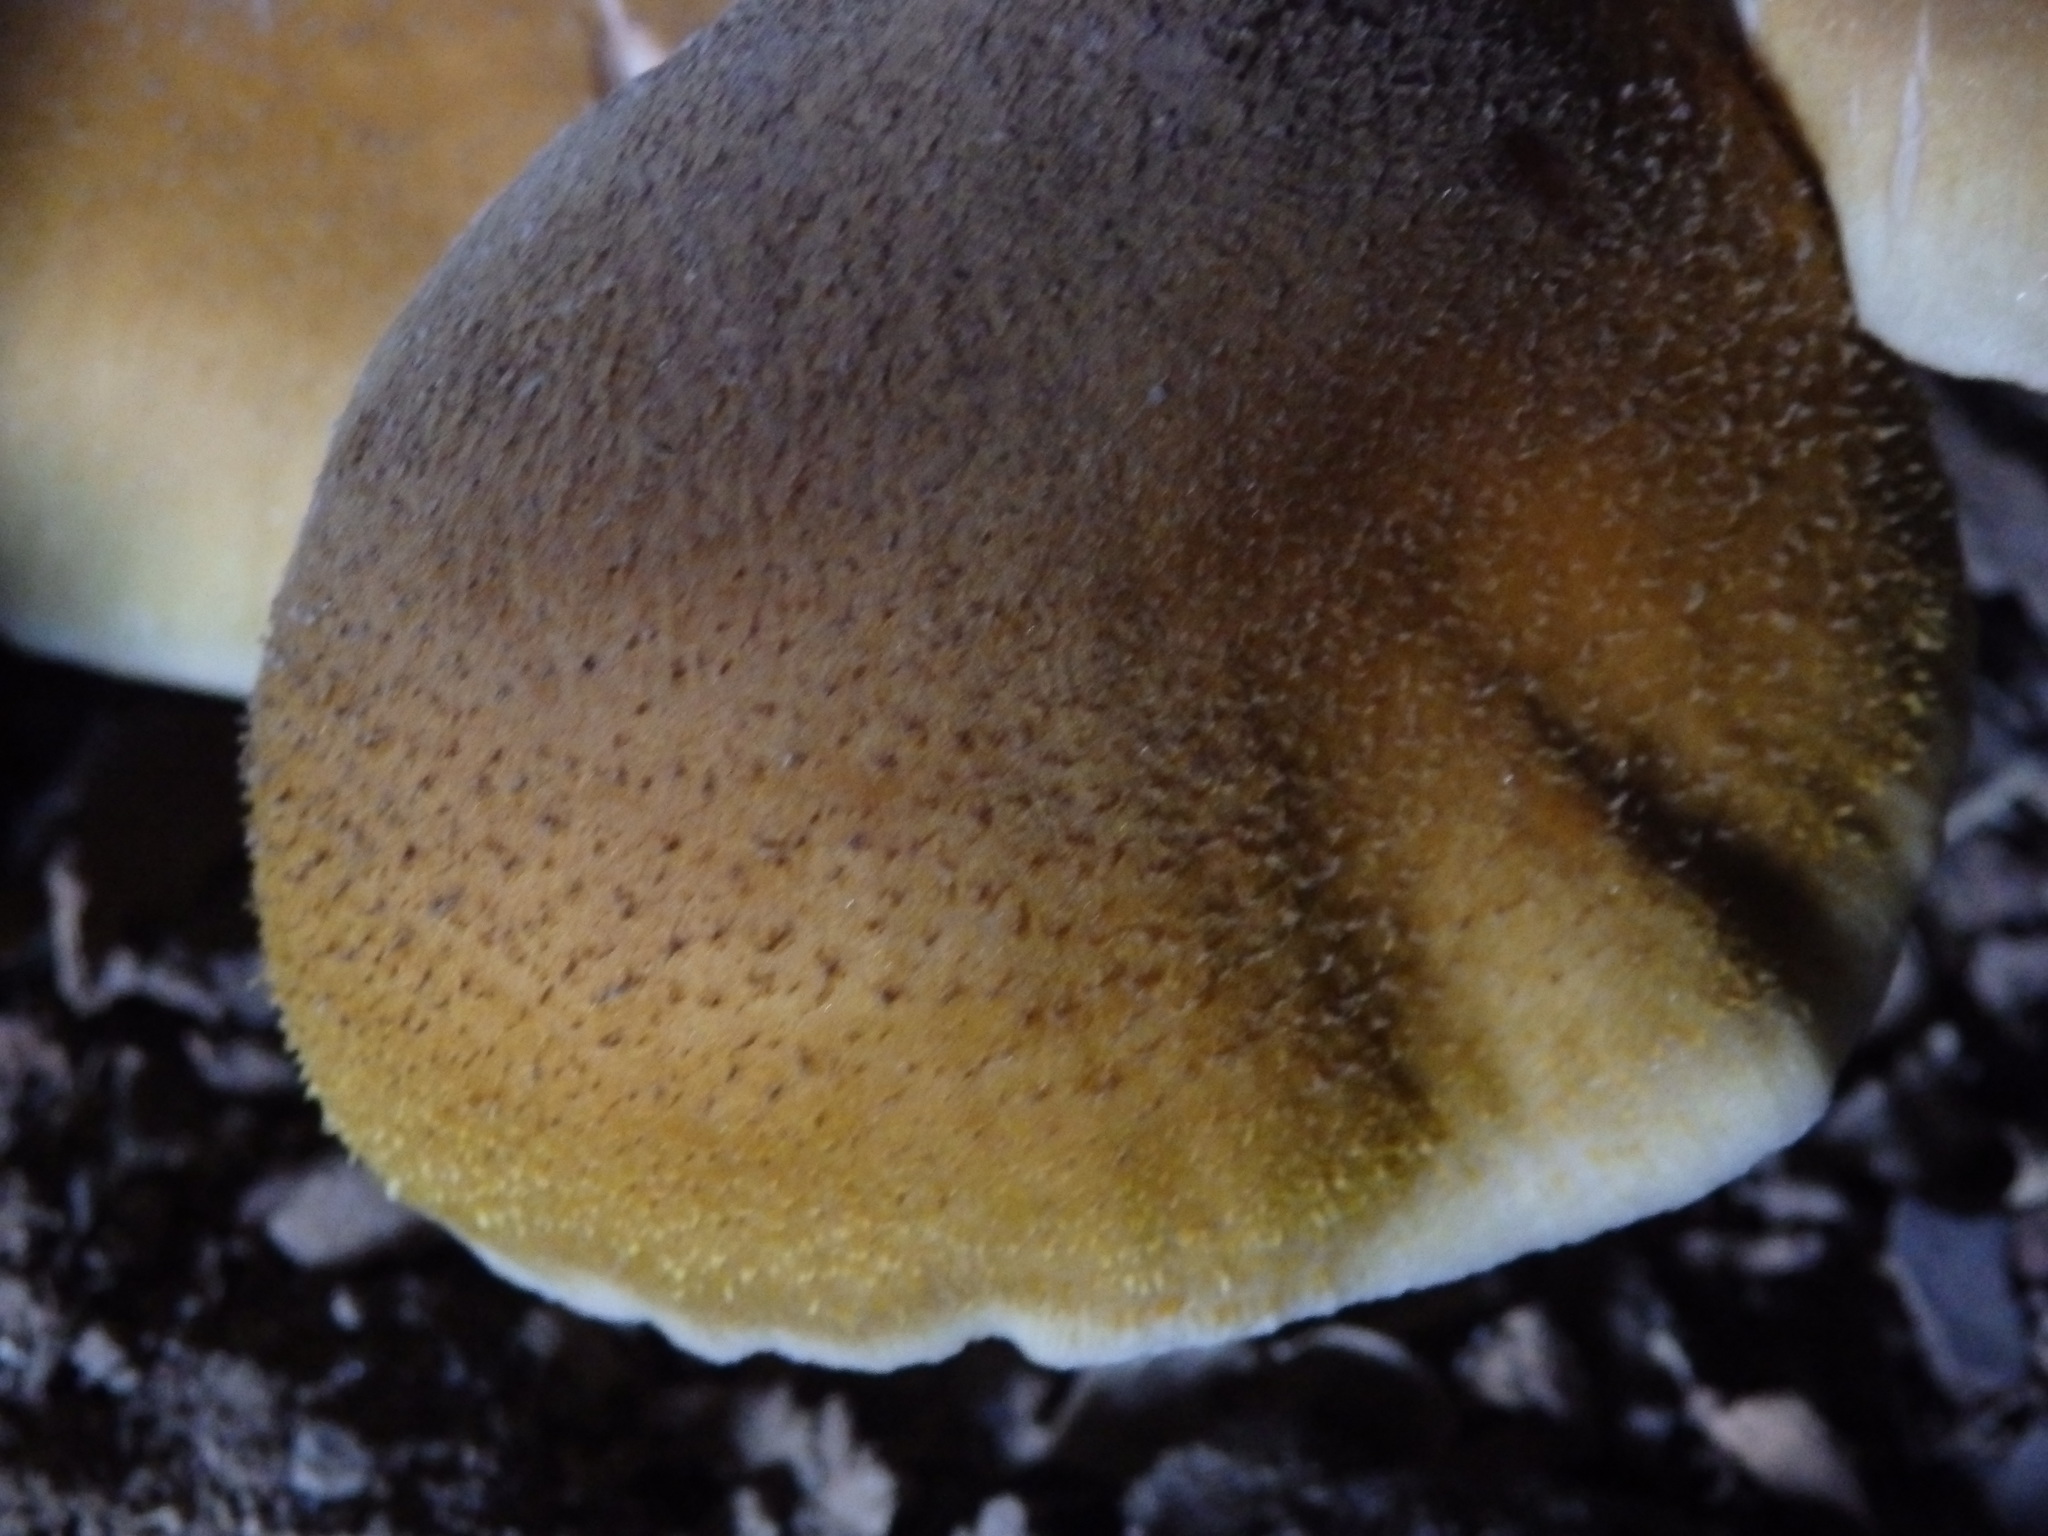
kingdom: Fungi
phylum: Basidiomycota
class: Agaricomycetes
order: Agaricales
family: Physalacriaceae
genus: Armillaria
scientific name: Armillaria mellea
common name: Honey fungus
